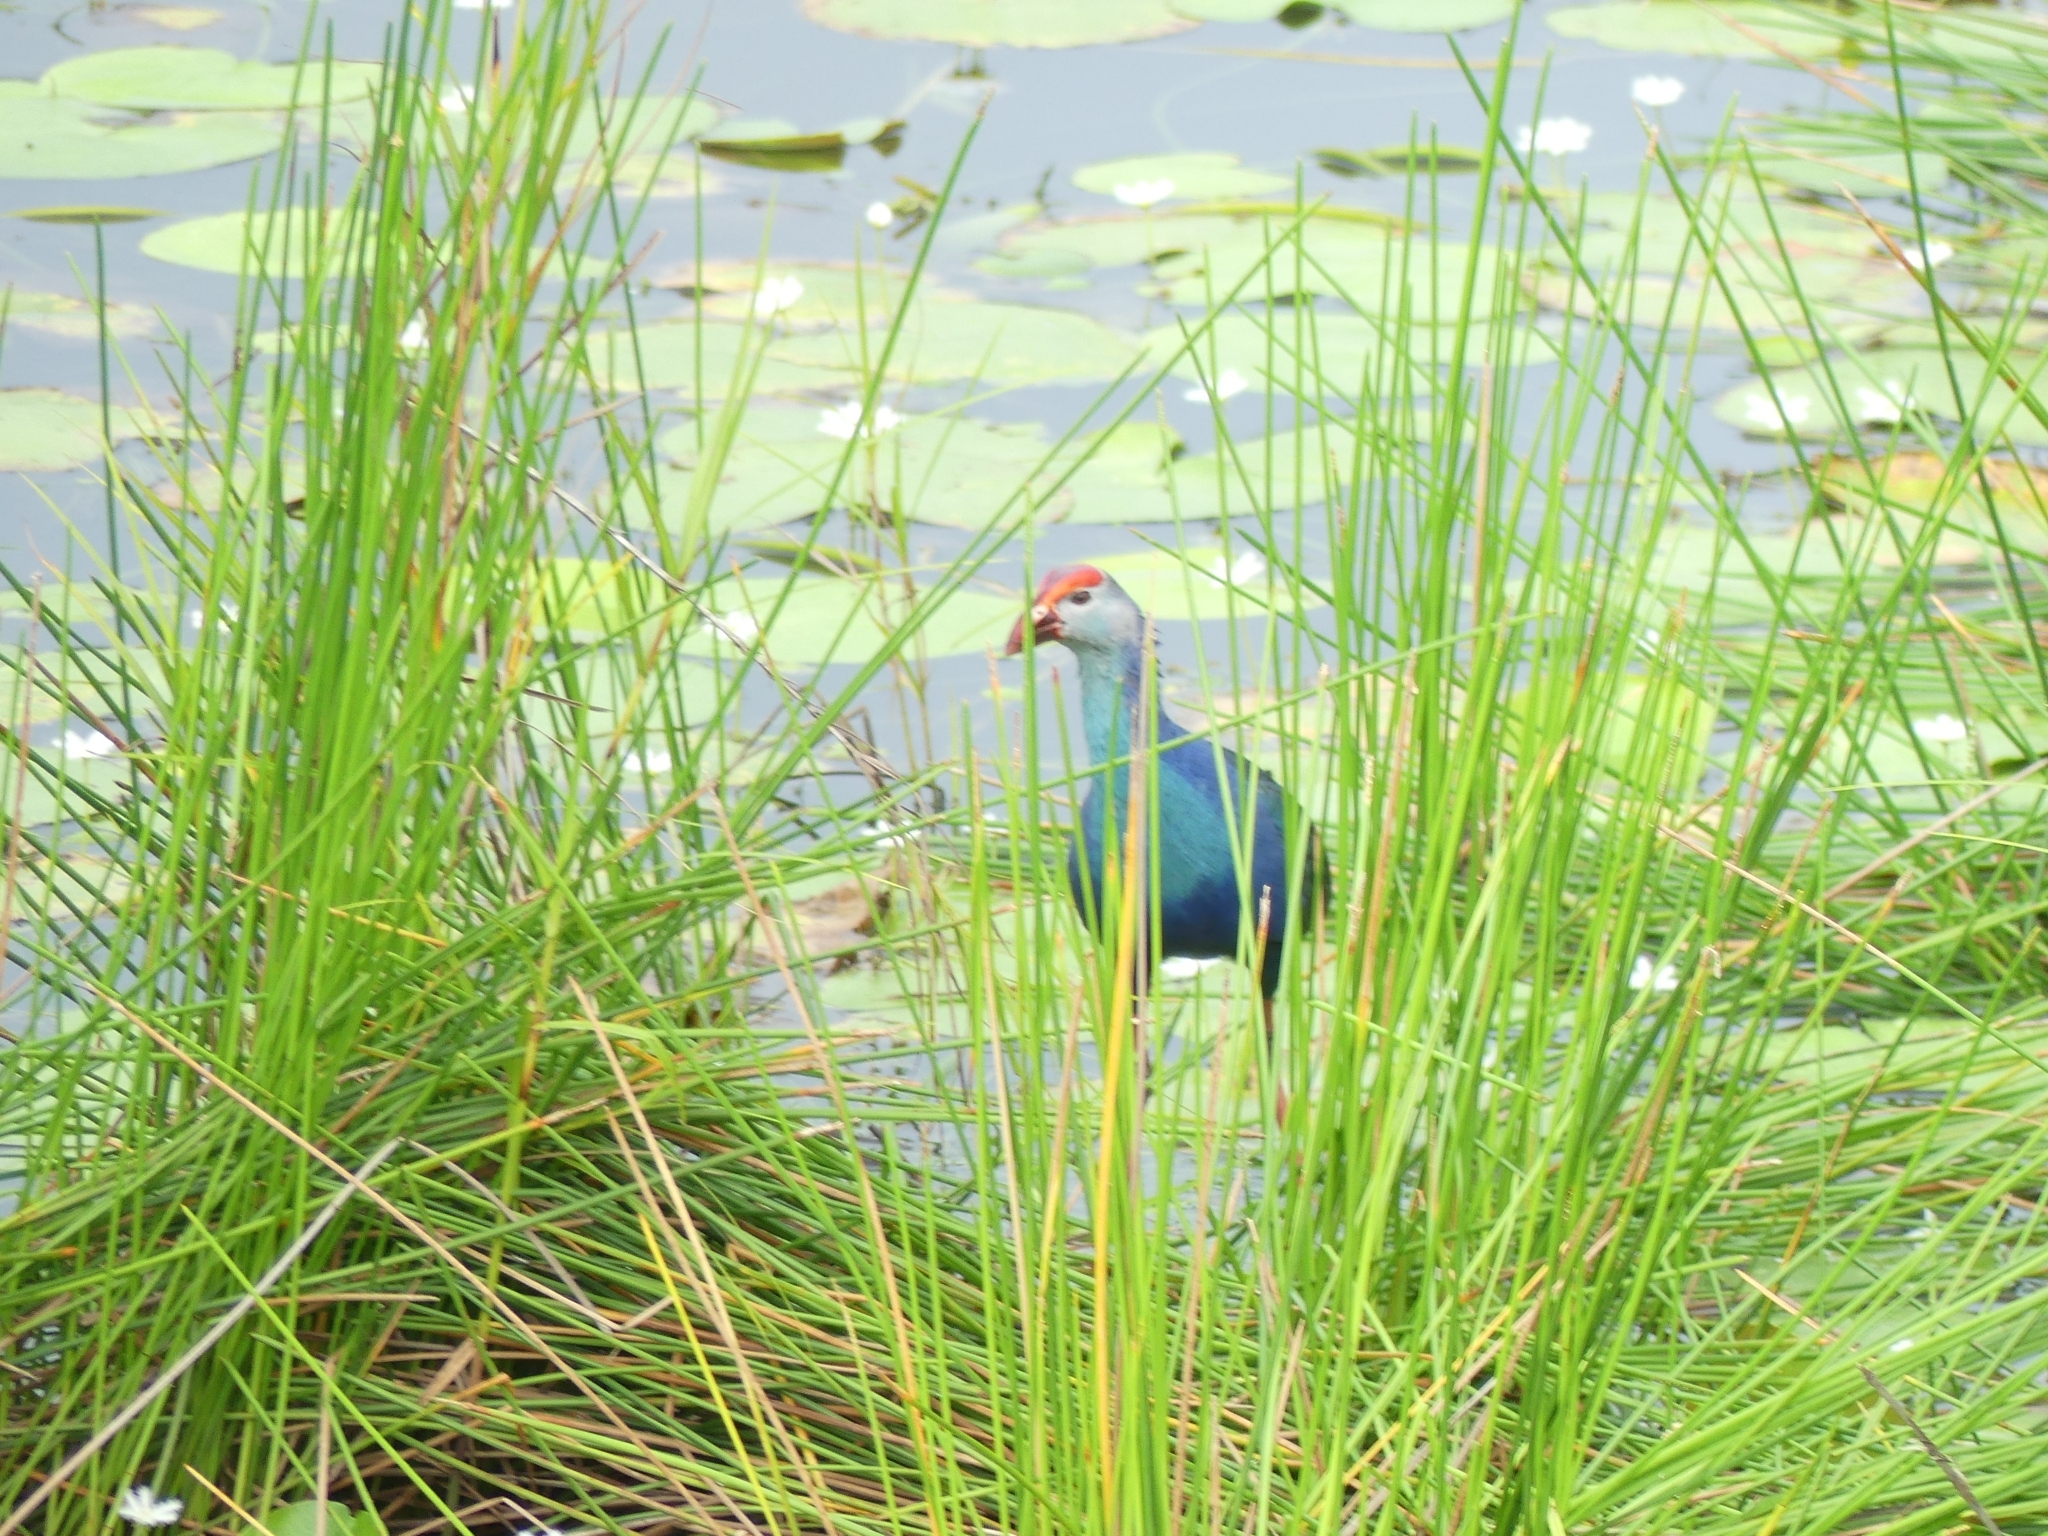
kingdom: Animalia
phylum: Chordata
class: Aves
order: Gruiformes
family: Rallidae
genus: Porphyrio
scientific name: Porphyrio porphyrio
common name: Purple swamphen
